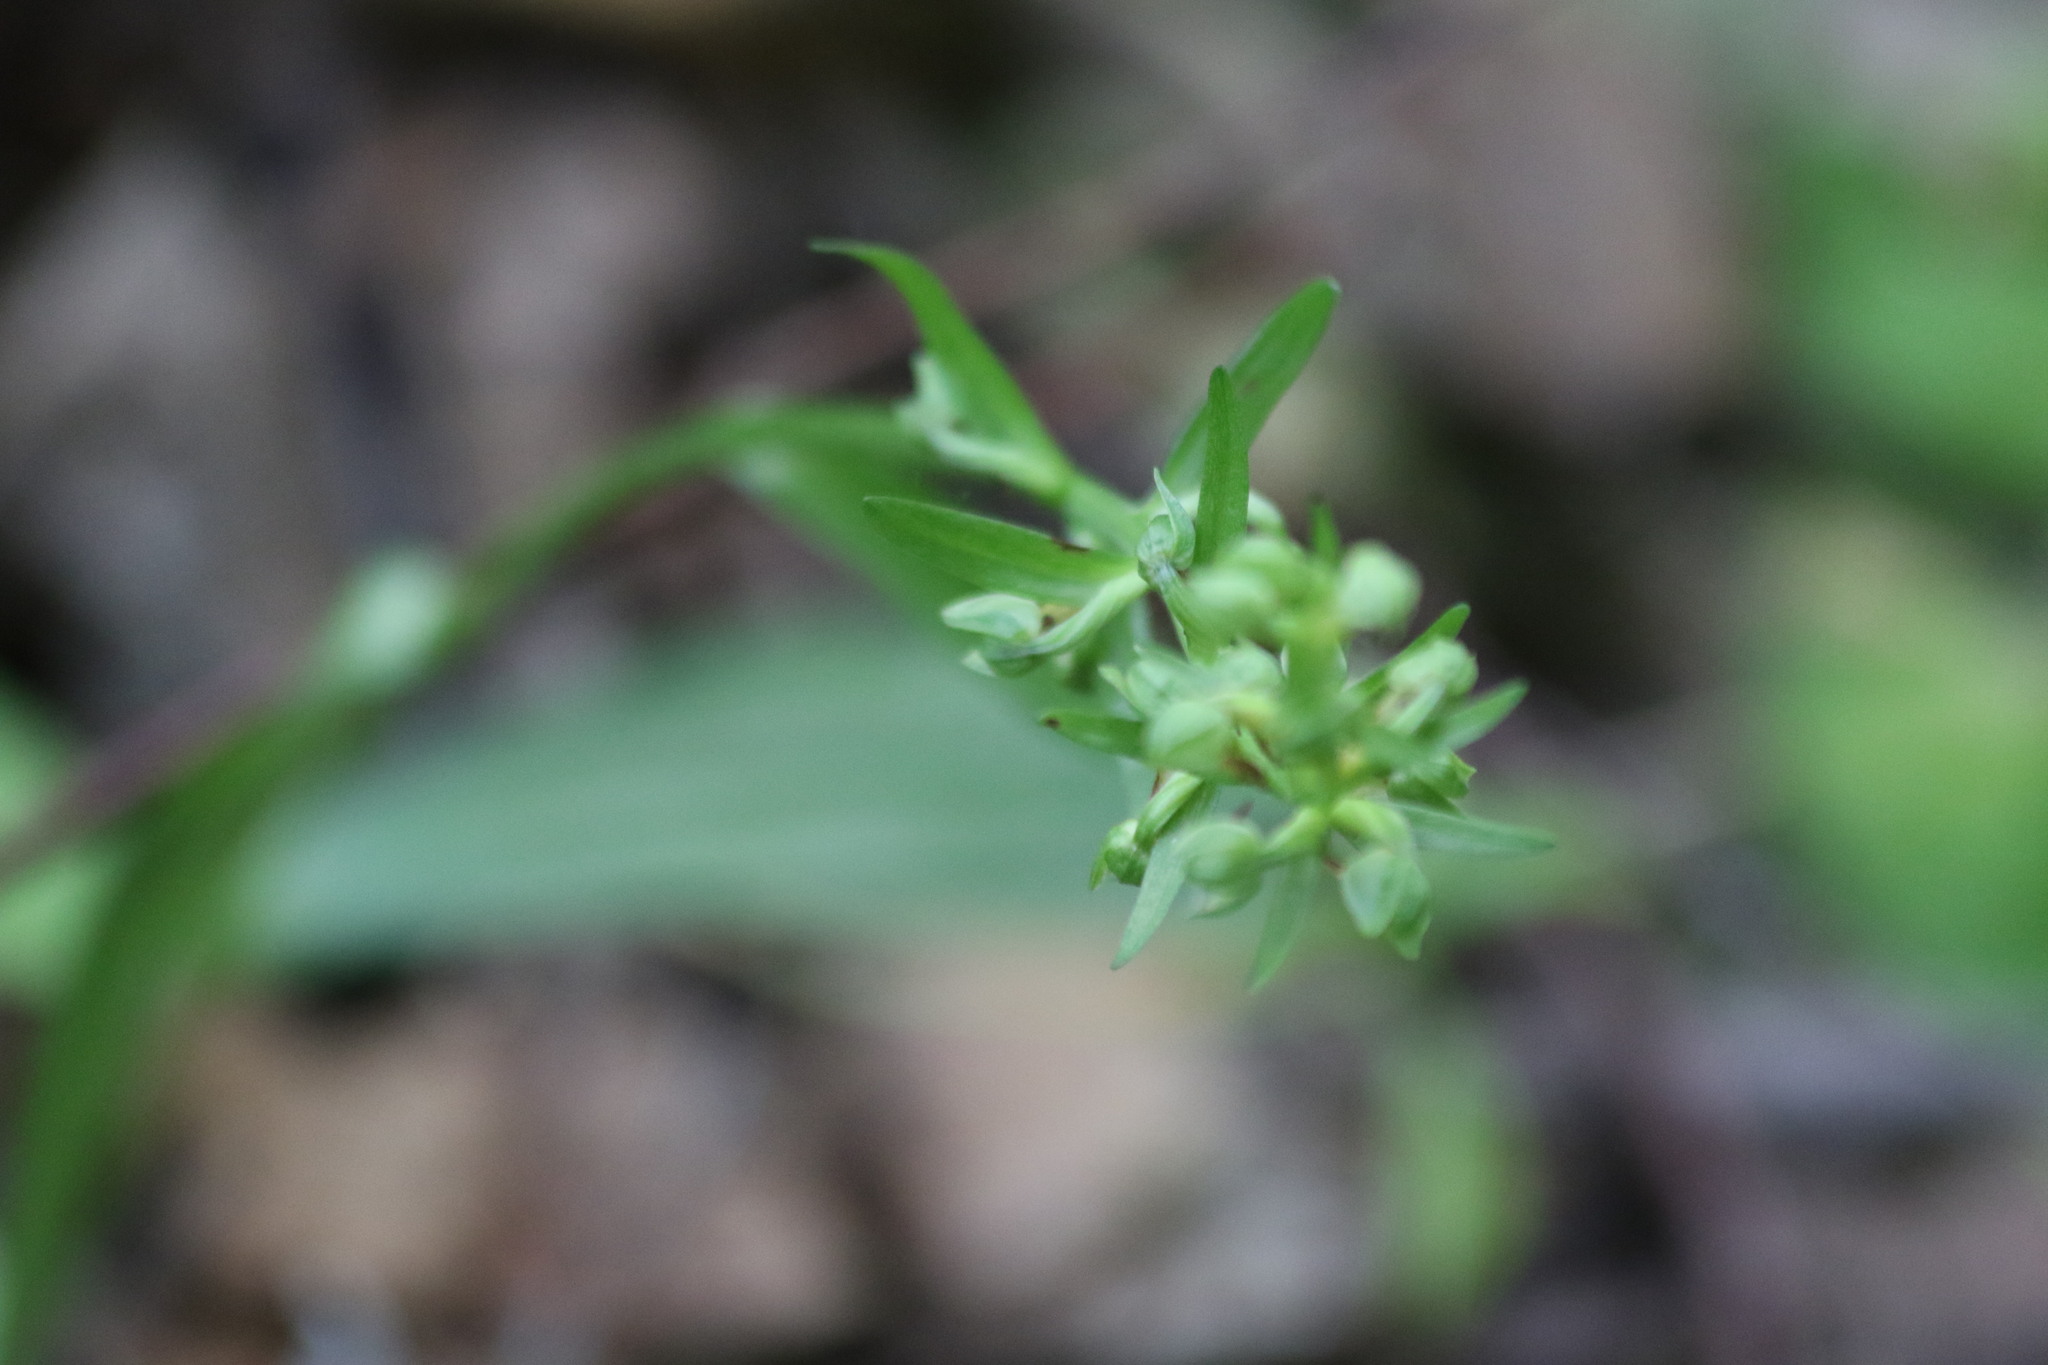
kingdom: Plantae
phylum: Tracheophyta
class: Liliopsida
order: Asparagales
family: Orchidaceae
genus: Dactylorhiza
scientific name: Dactylorhiza viridis
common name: Longbract frog orchid
